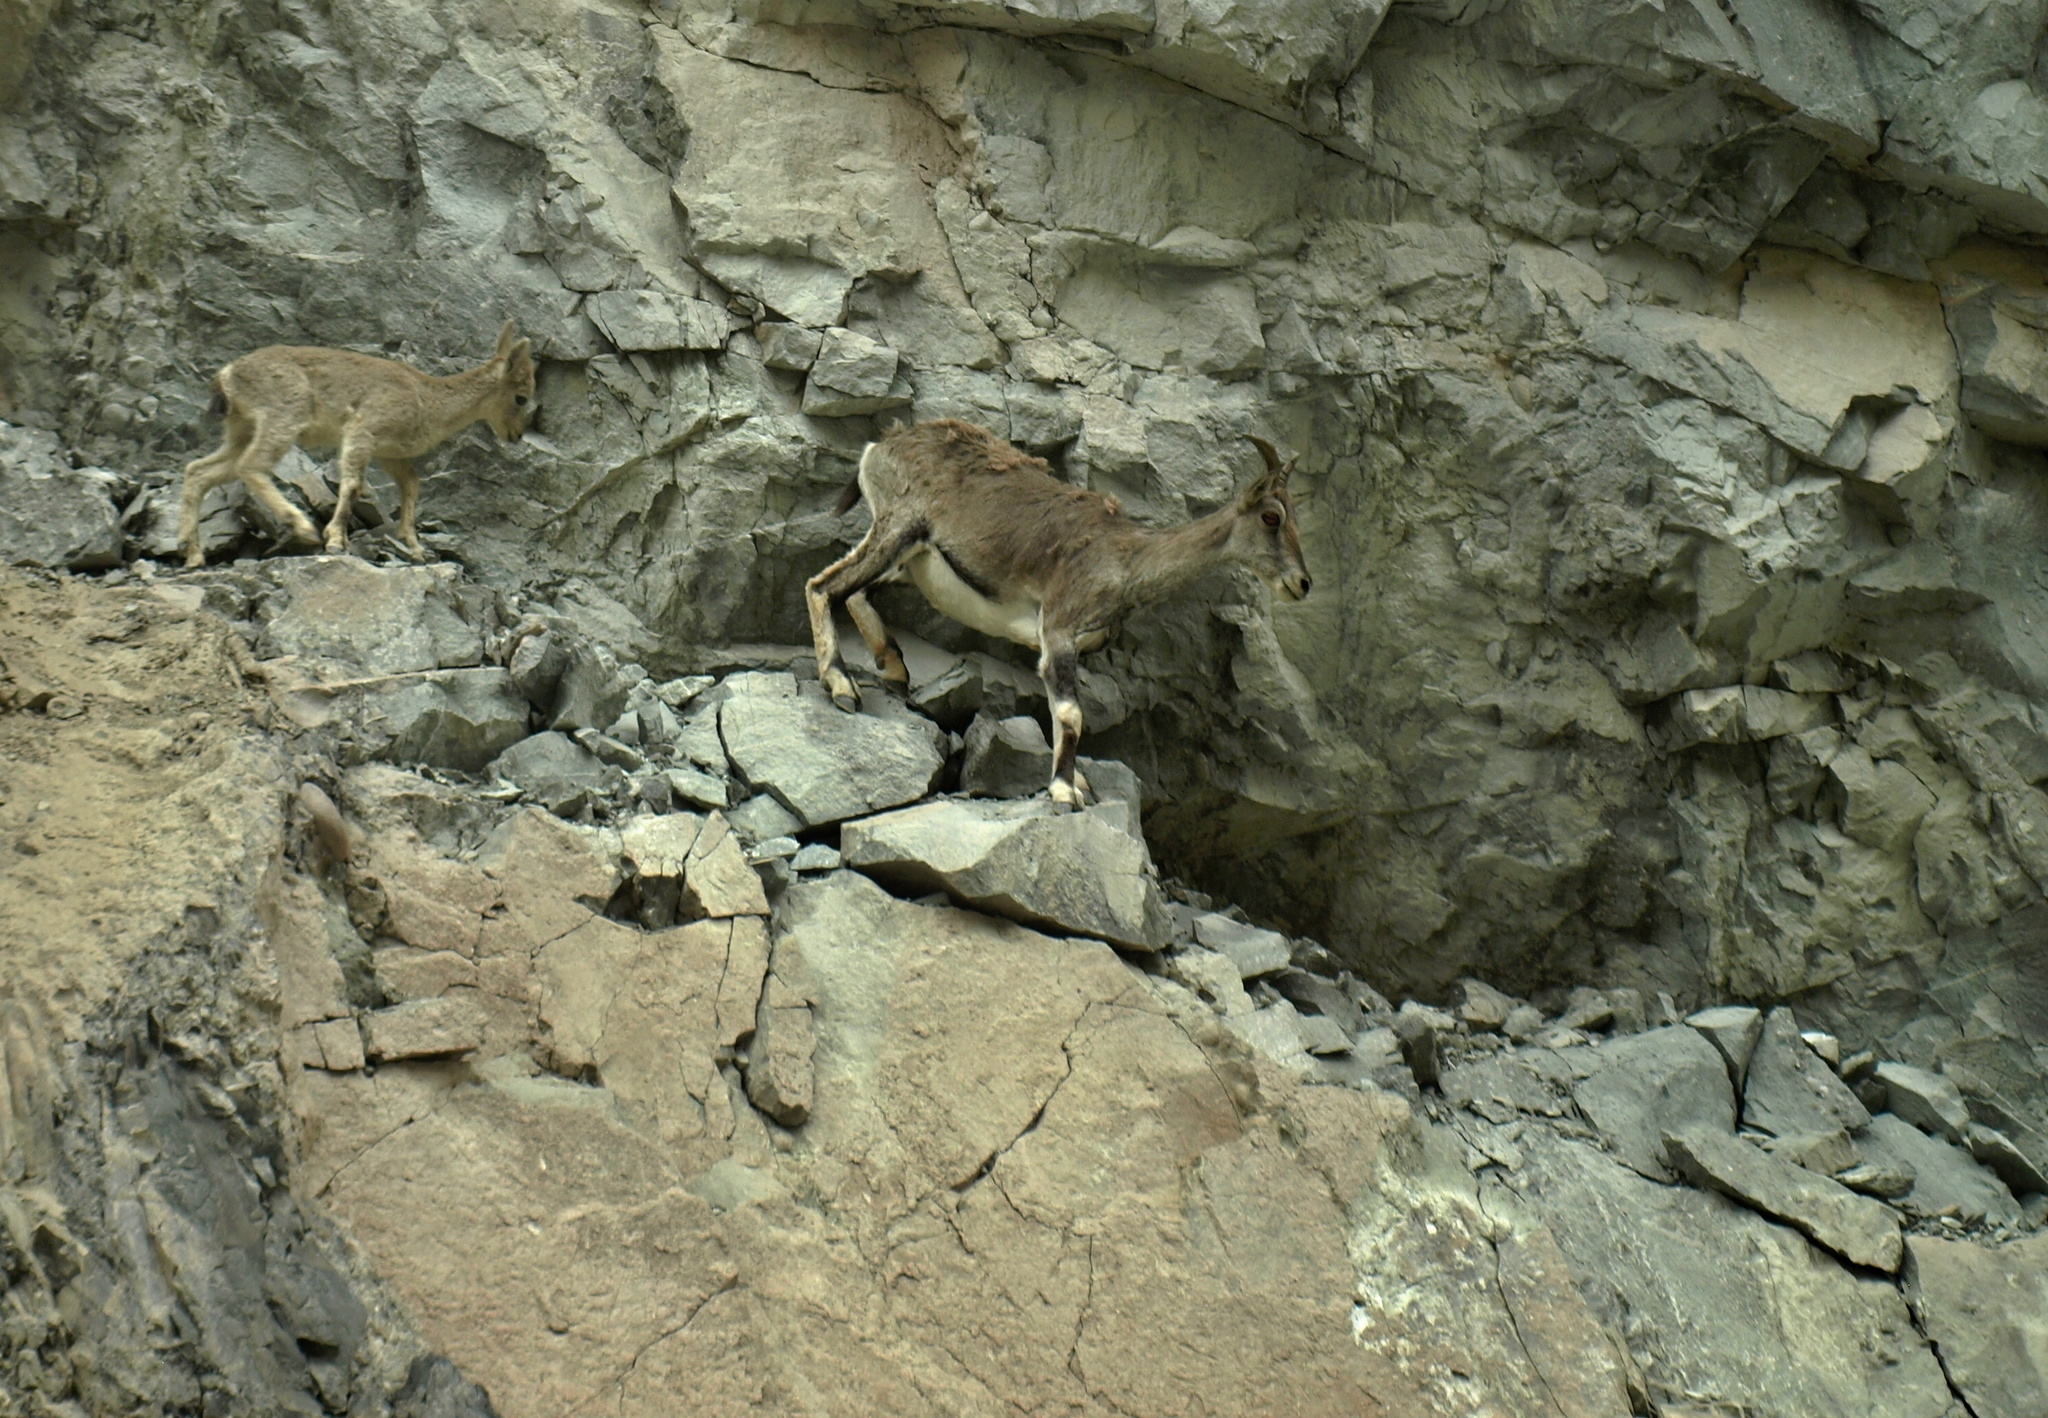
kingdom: Animalia
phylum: Chordata
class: Mammalia
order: Artiodactyla
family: Bovidae
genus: Pseudois
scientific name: Pseudois nayaur
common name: Bharal
